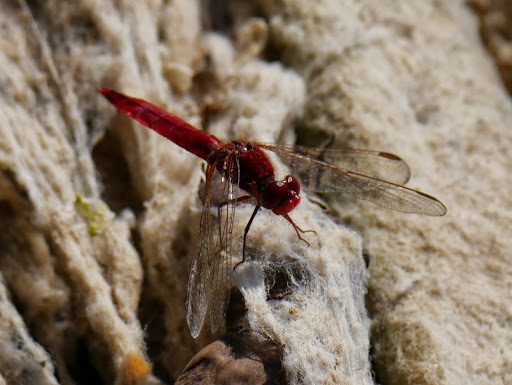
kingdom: Animalia
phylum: Arthropoda
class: Insecta
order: Odonata
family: Libellulidae
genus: Crocothemis
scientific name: Crocothemis erythraea
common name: Scarlet dragonfly
